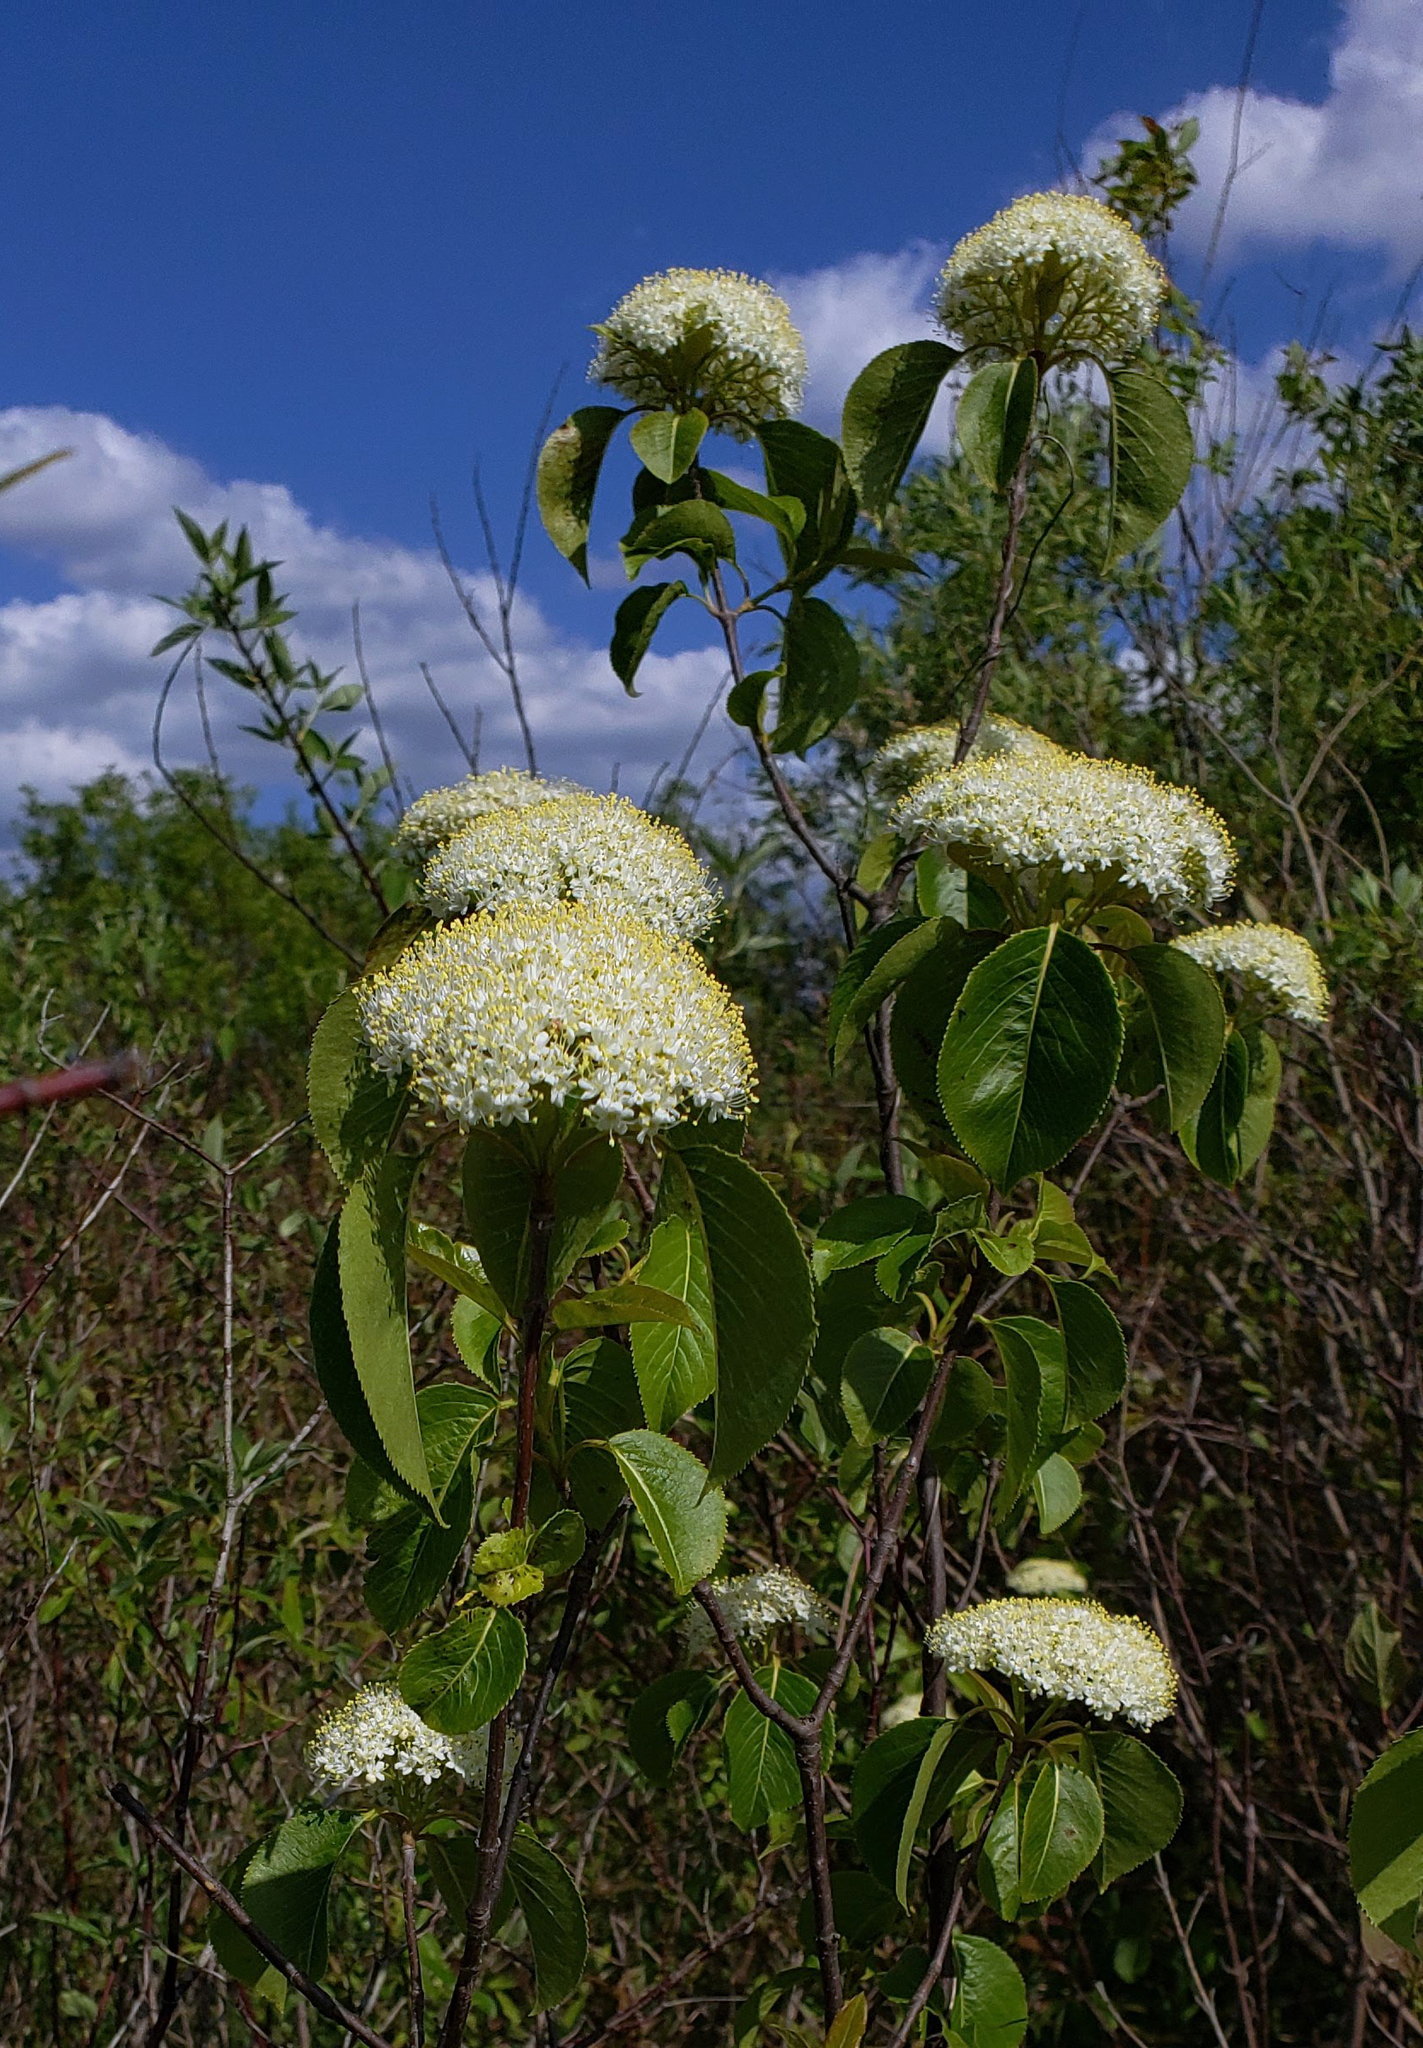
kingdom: Plantae
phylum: Tracheophyta
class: Magnoliopsida
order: Dipsacales
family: Viburnaceae
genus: Viburnum
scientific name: Viburnum lentago
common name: Black haw
